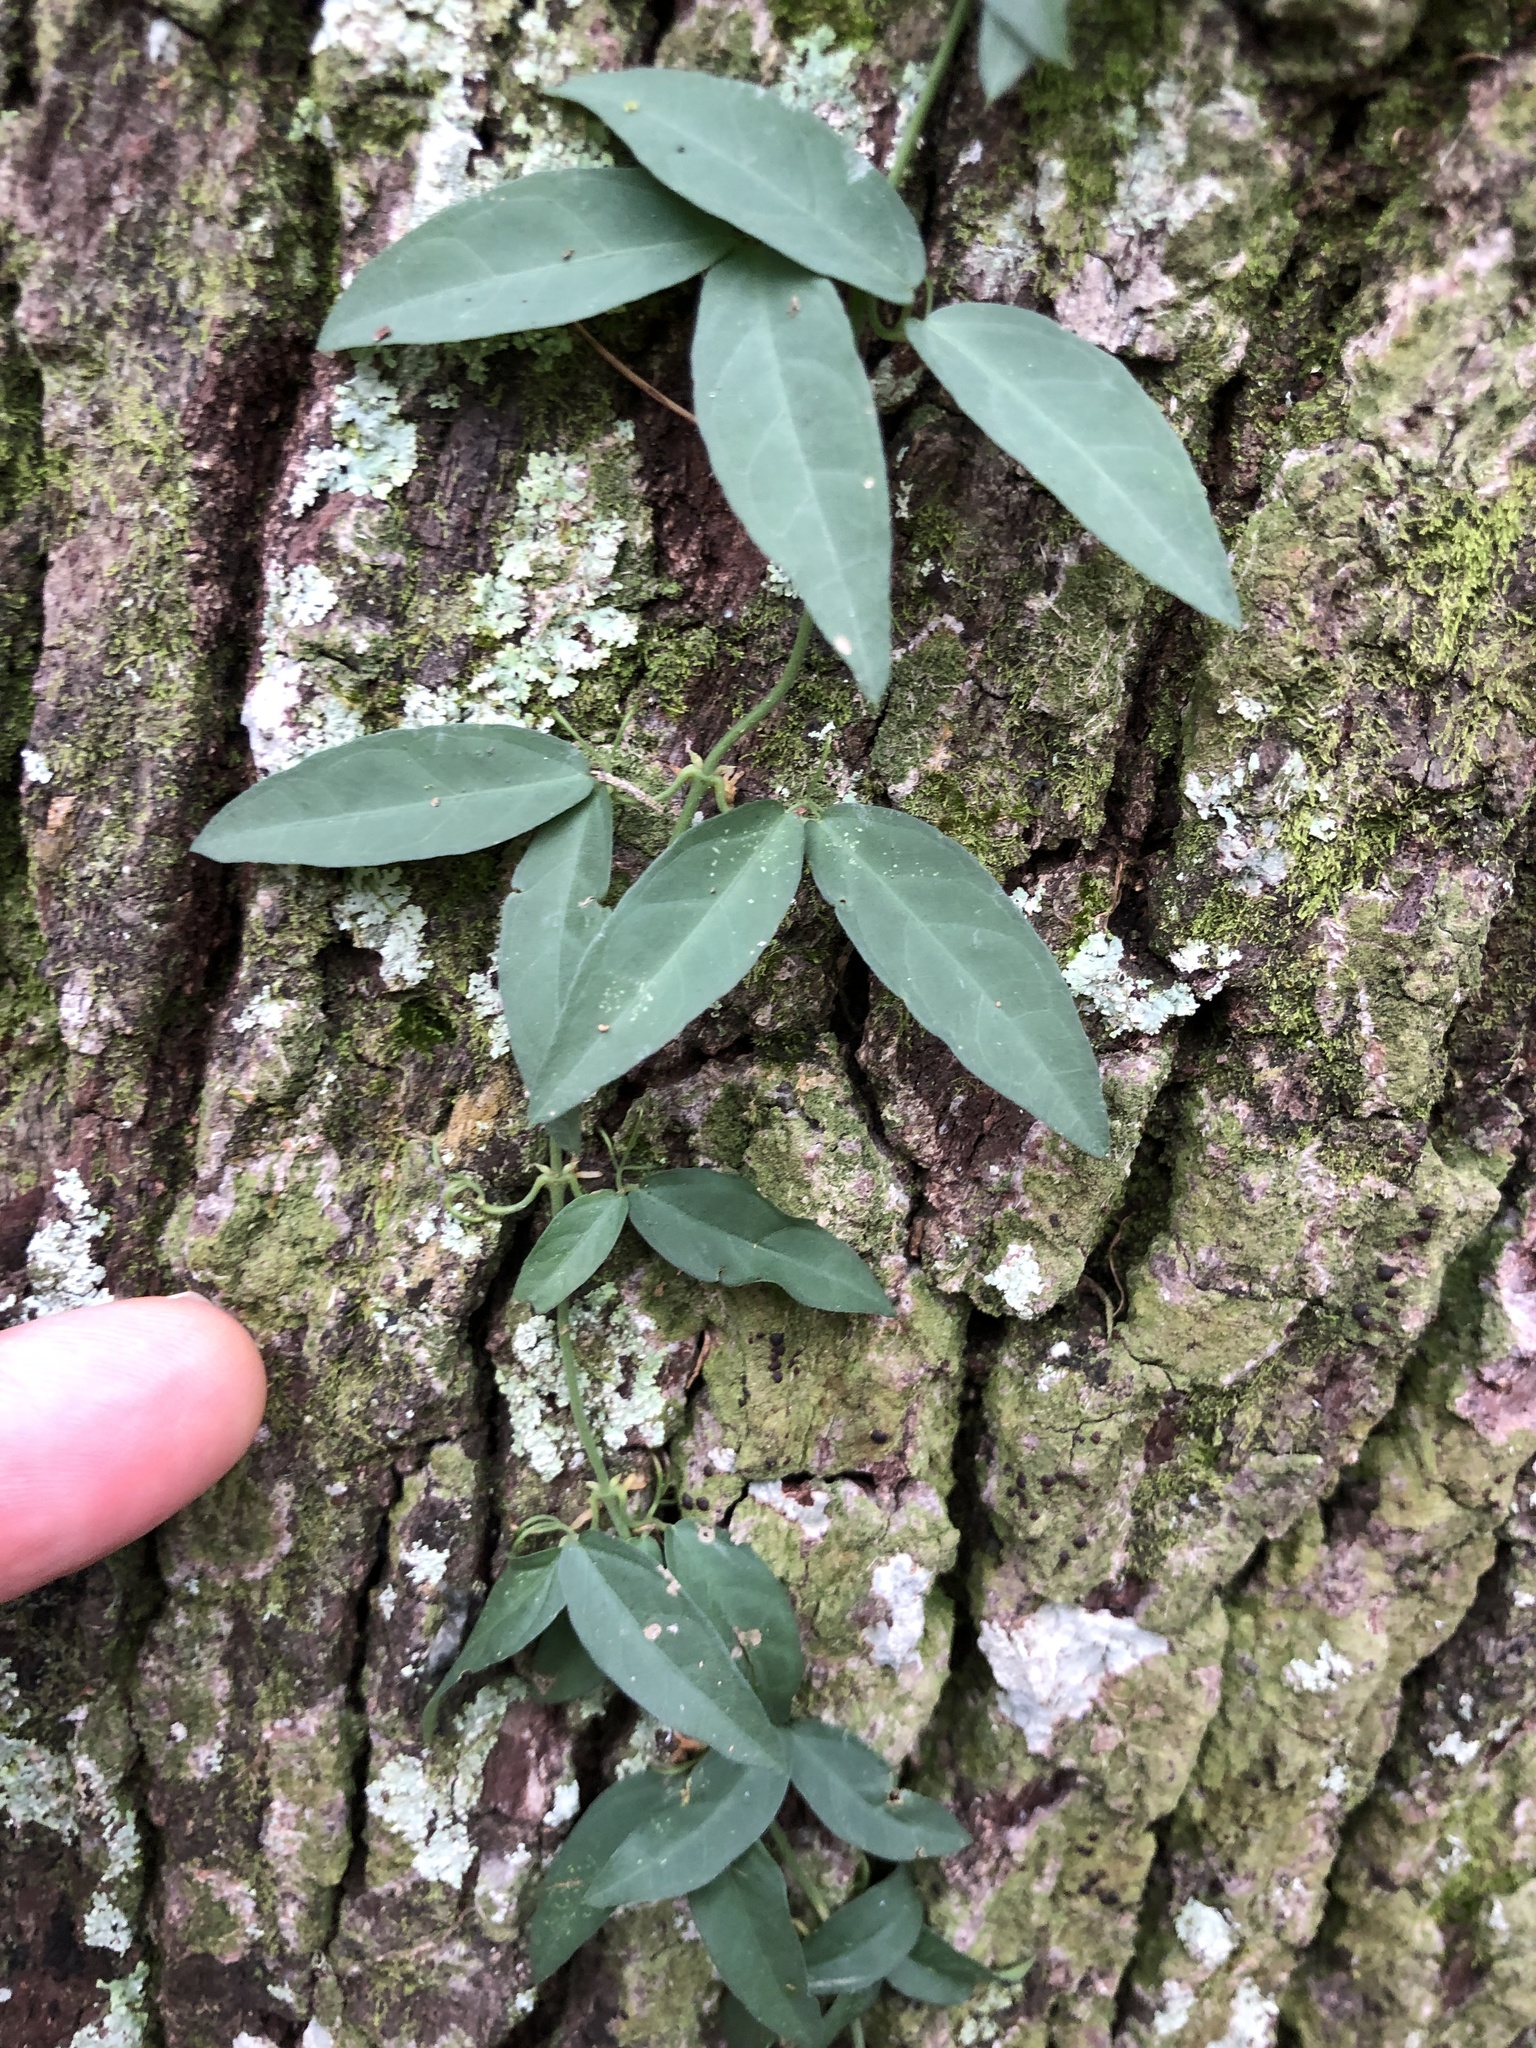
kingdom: Plantae
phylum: Tracheophyta
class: Magnoliopsida
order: Lamiales
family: Bignoniaceae
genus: Dolichandra
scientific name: Dolichandra unguis-cati
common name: Catclaw vine
